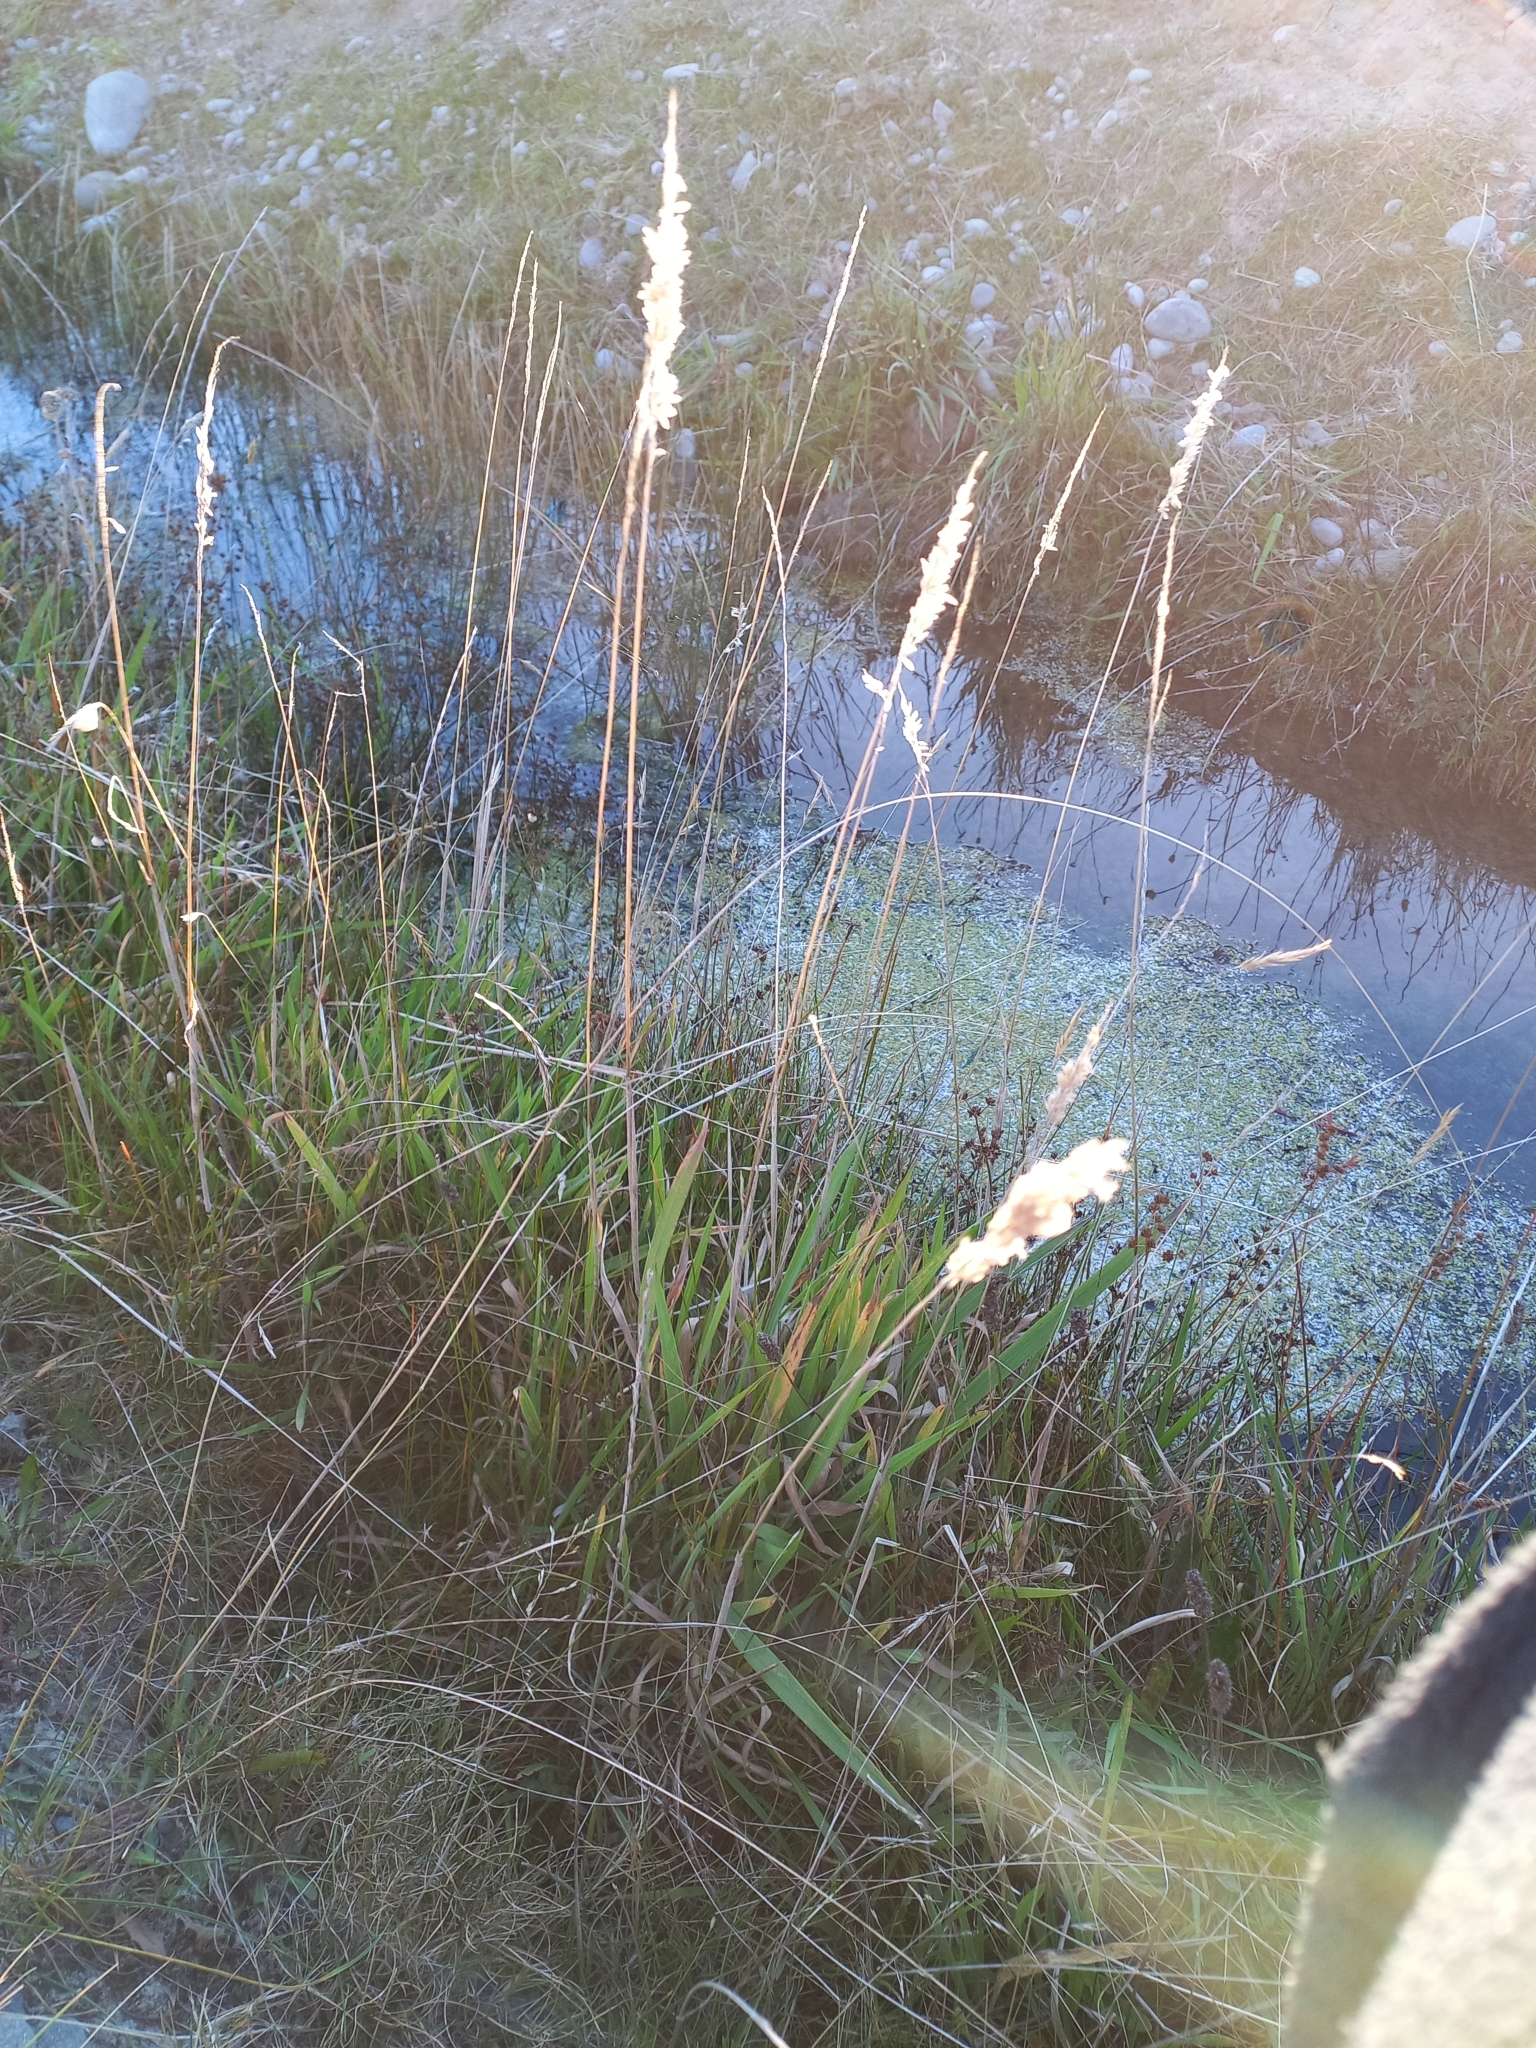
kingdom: Plantae
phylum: Tracheophyta
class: Liliopsida
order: Poales
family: Poaceae
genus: Holcus
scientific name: Holcus lanatus
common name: Yorkshire-fog
